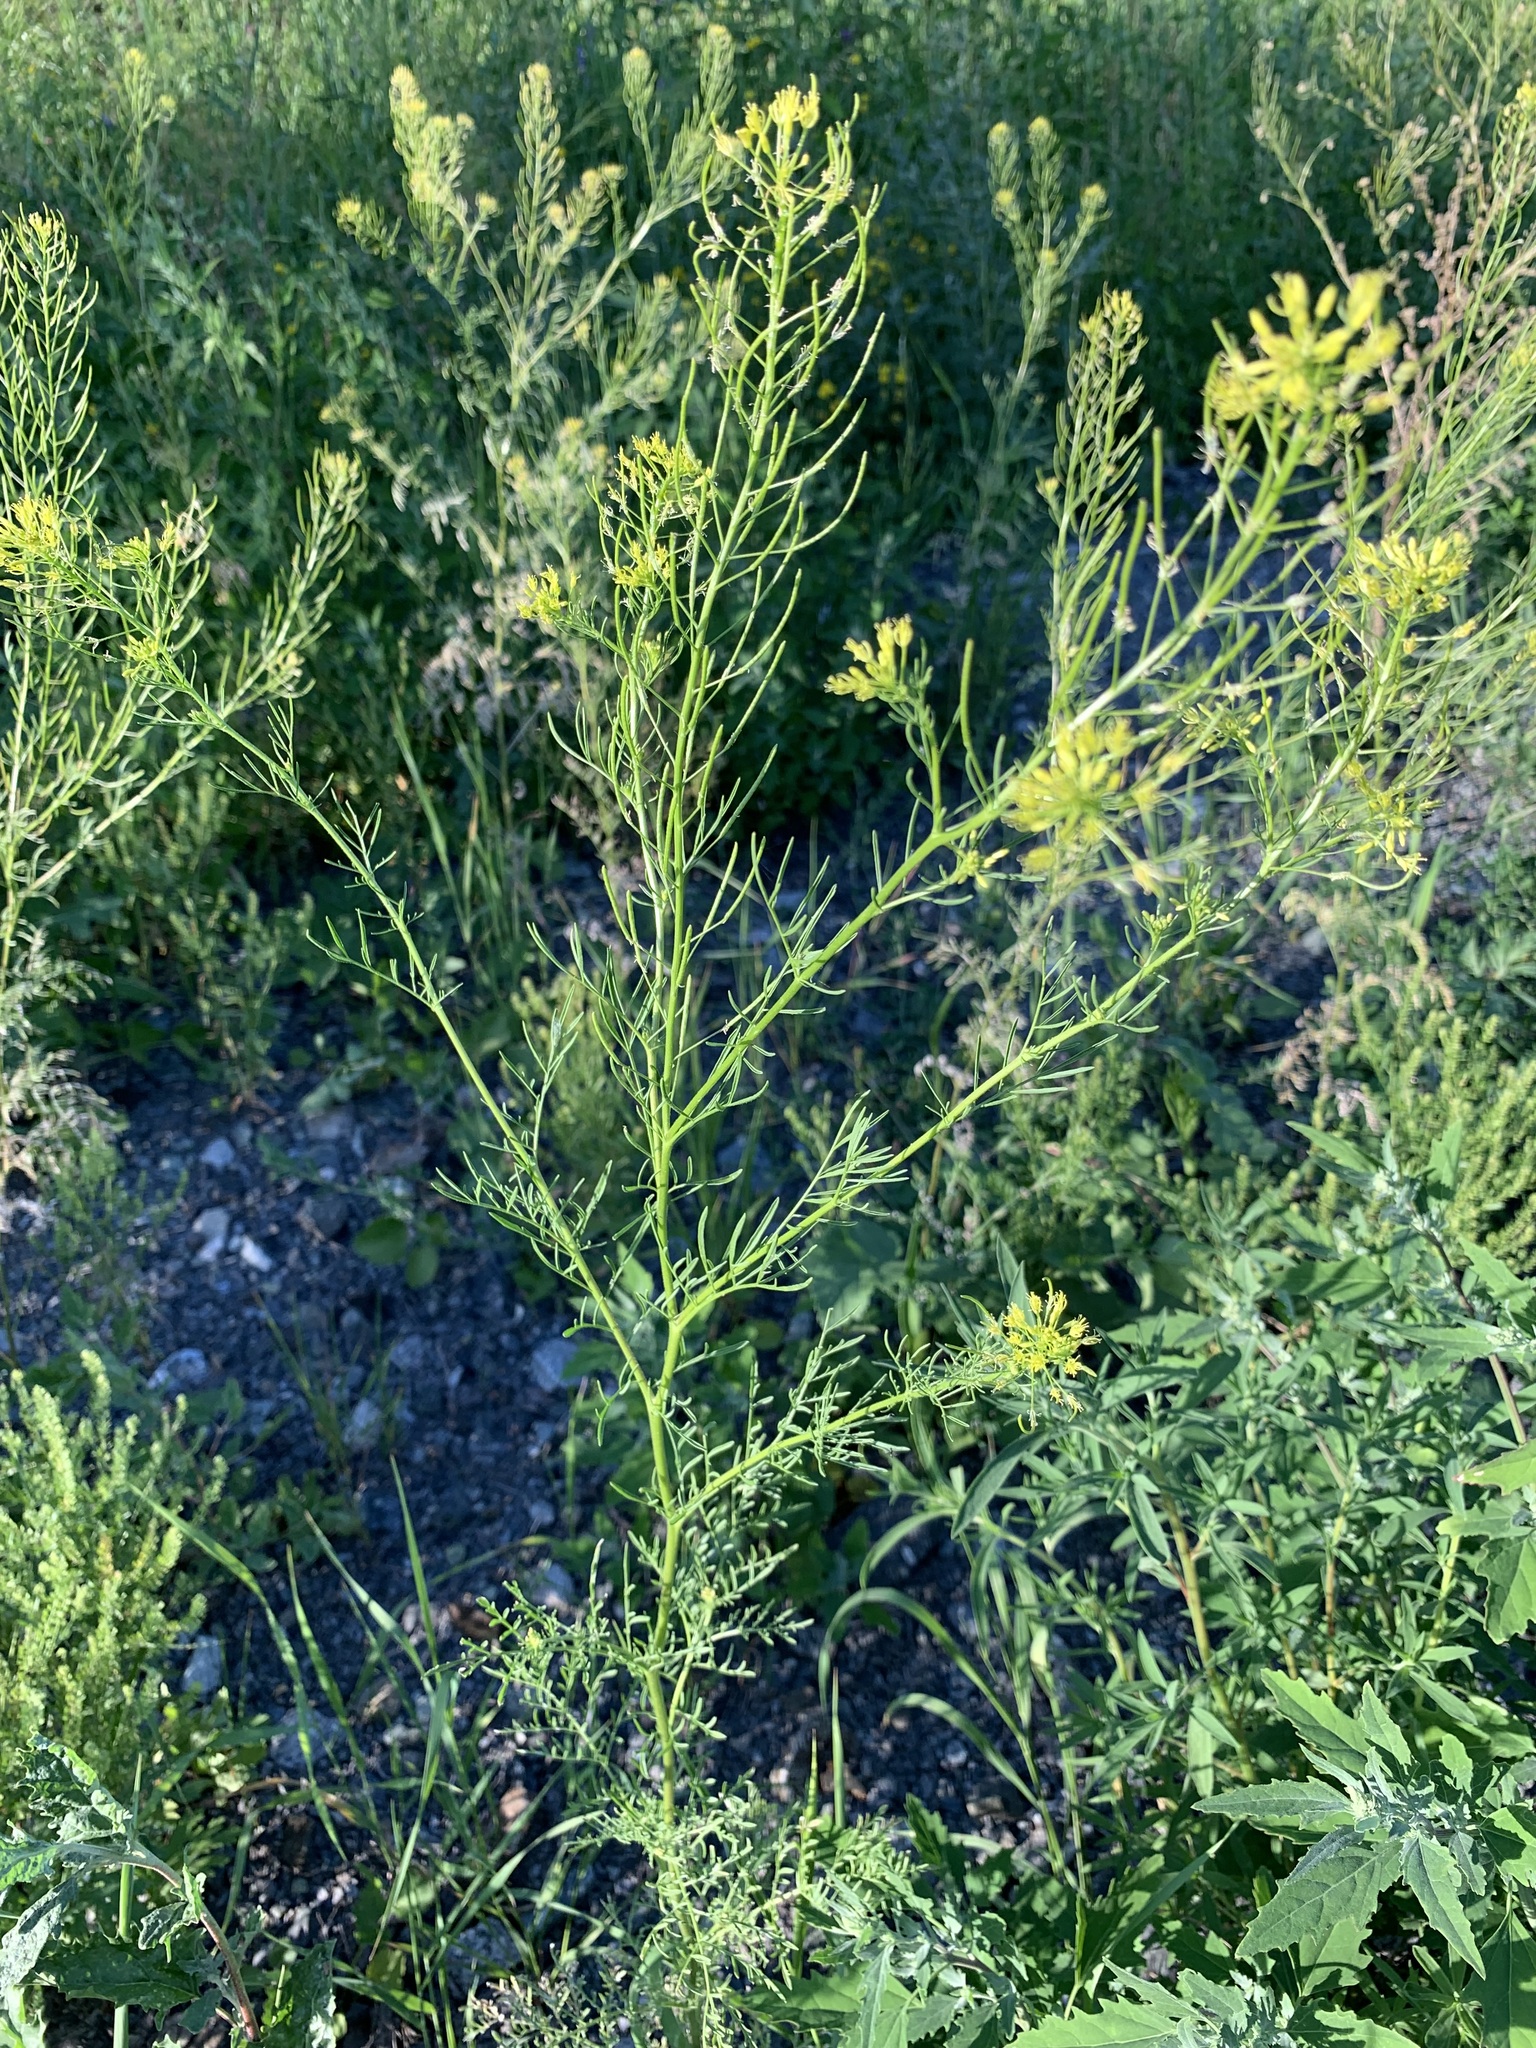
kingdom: Plantae
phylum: Tracheophyta
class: Magnoliopsida
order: Brassicales
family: Brassicaceae
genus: Descurainia
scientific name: Descurainia sophia
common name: Flixweed
